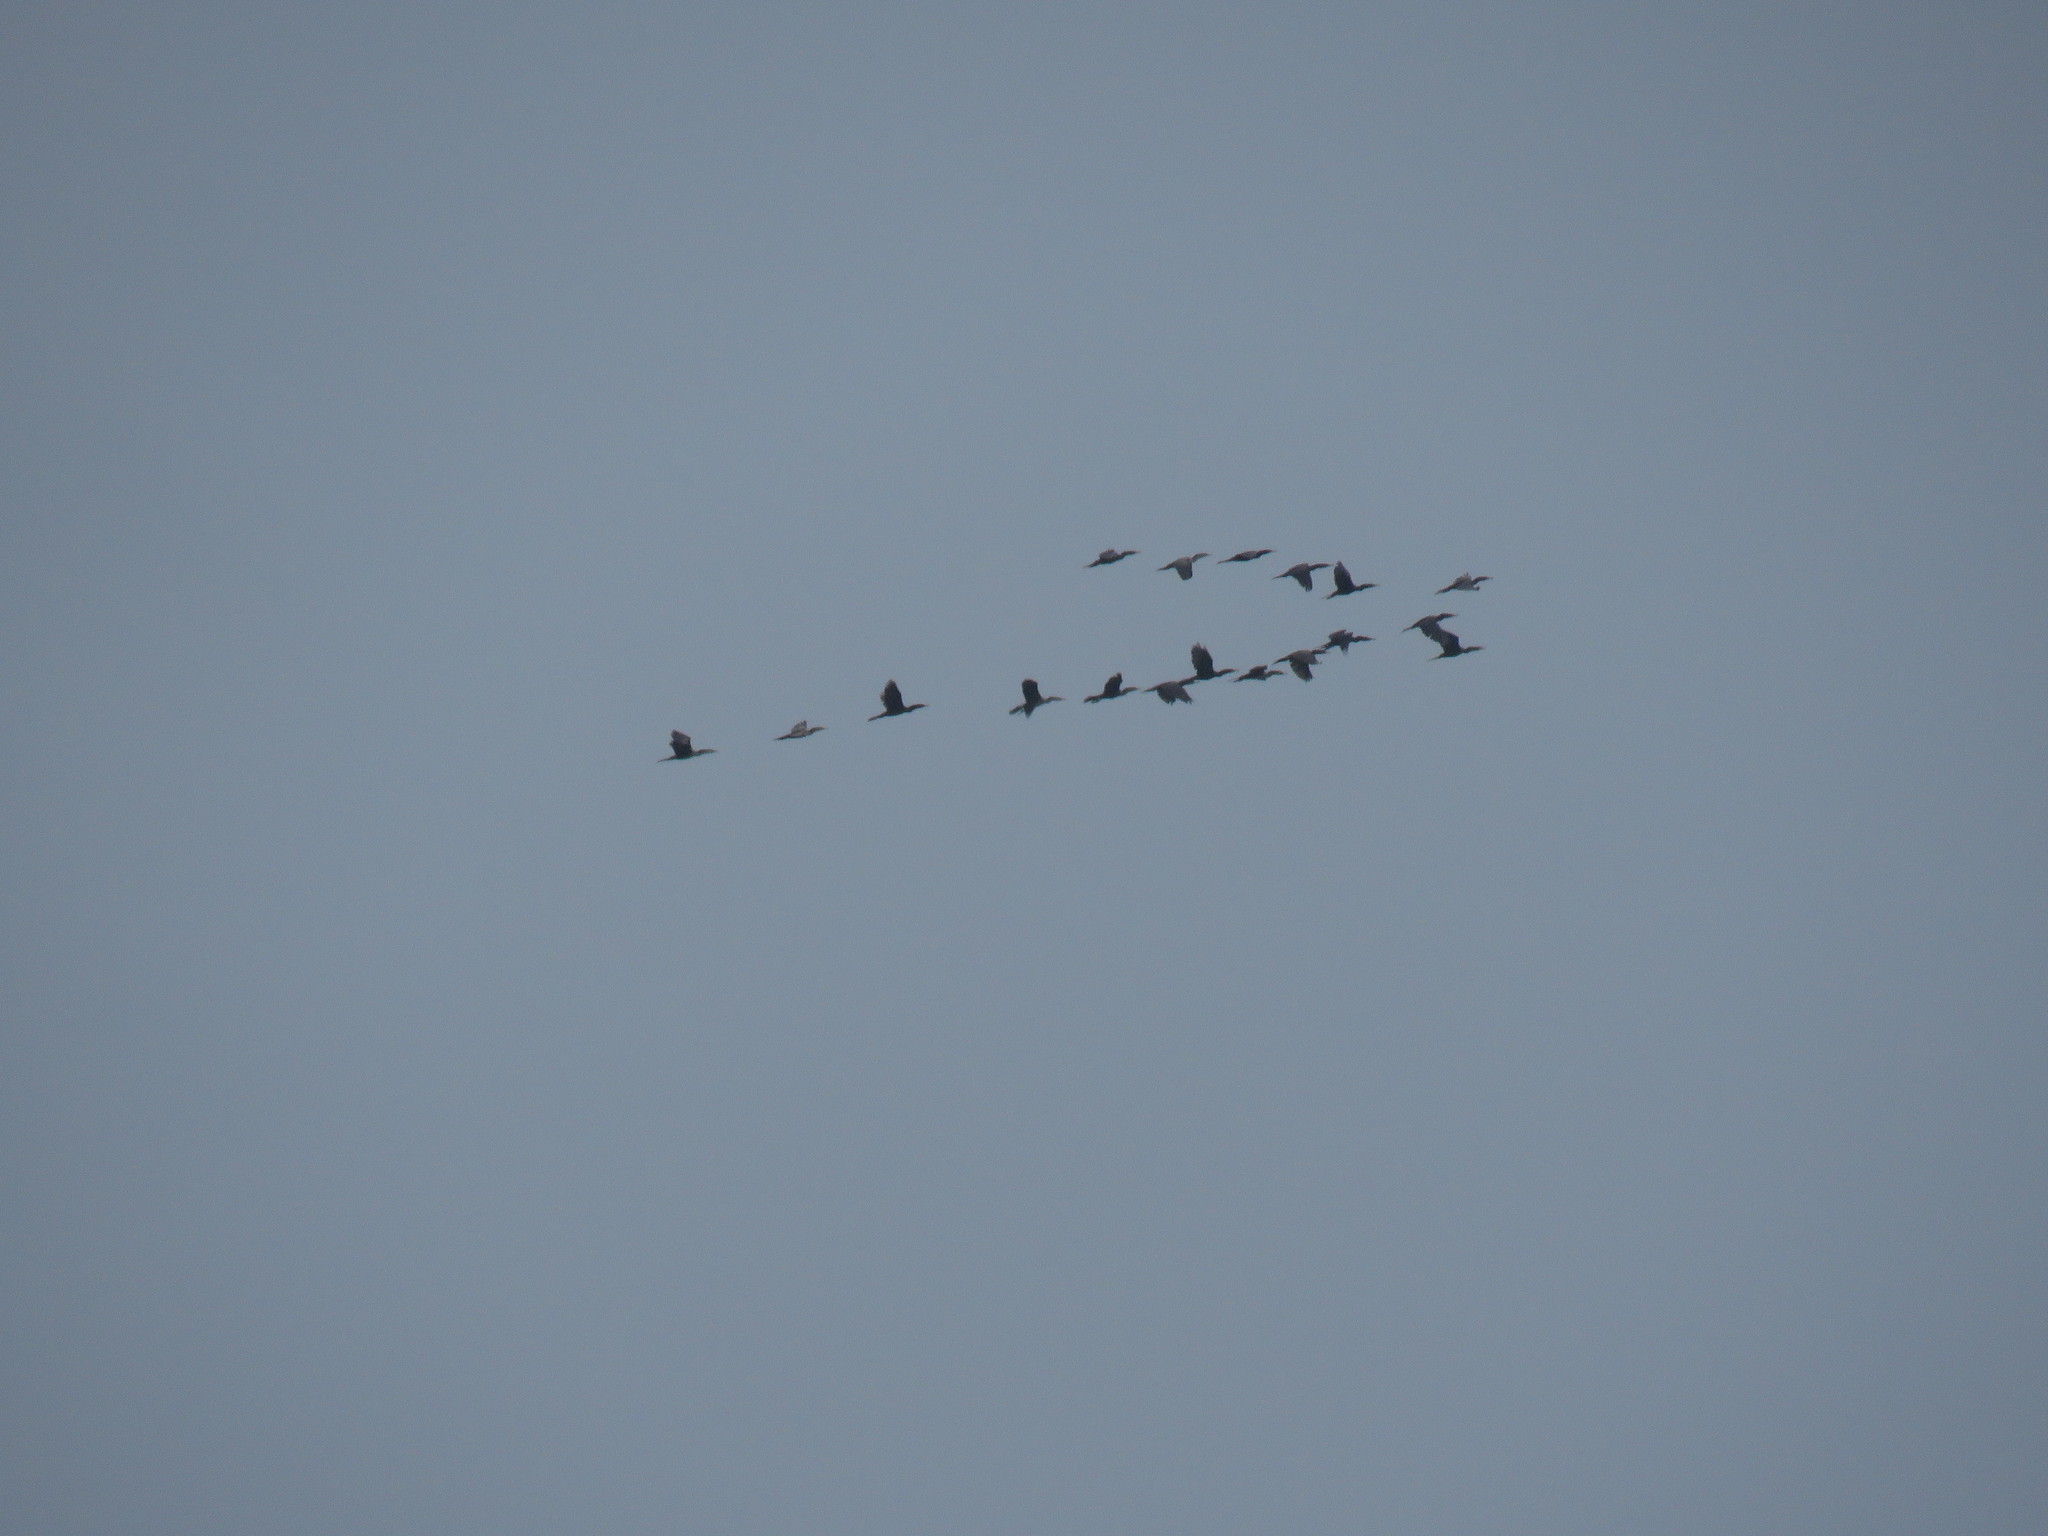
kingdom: Animalia
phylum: Chordata
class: Aves
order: Suliformes
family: Phalacrocoracidae
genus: Phalacrocorax
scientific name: Phalacrocorax brasilianus
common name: Neotropic cormorant
